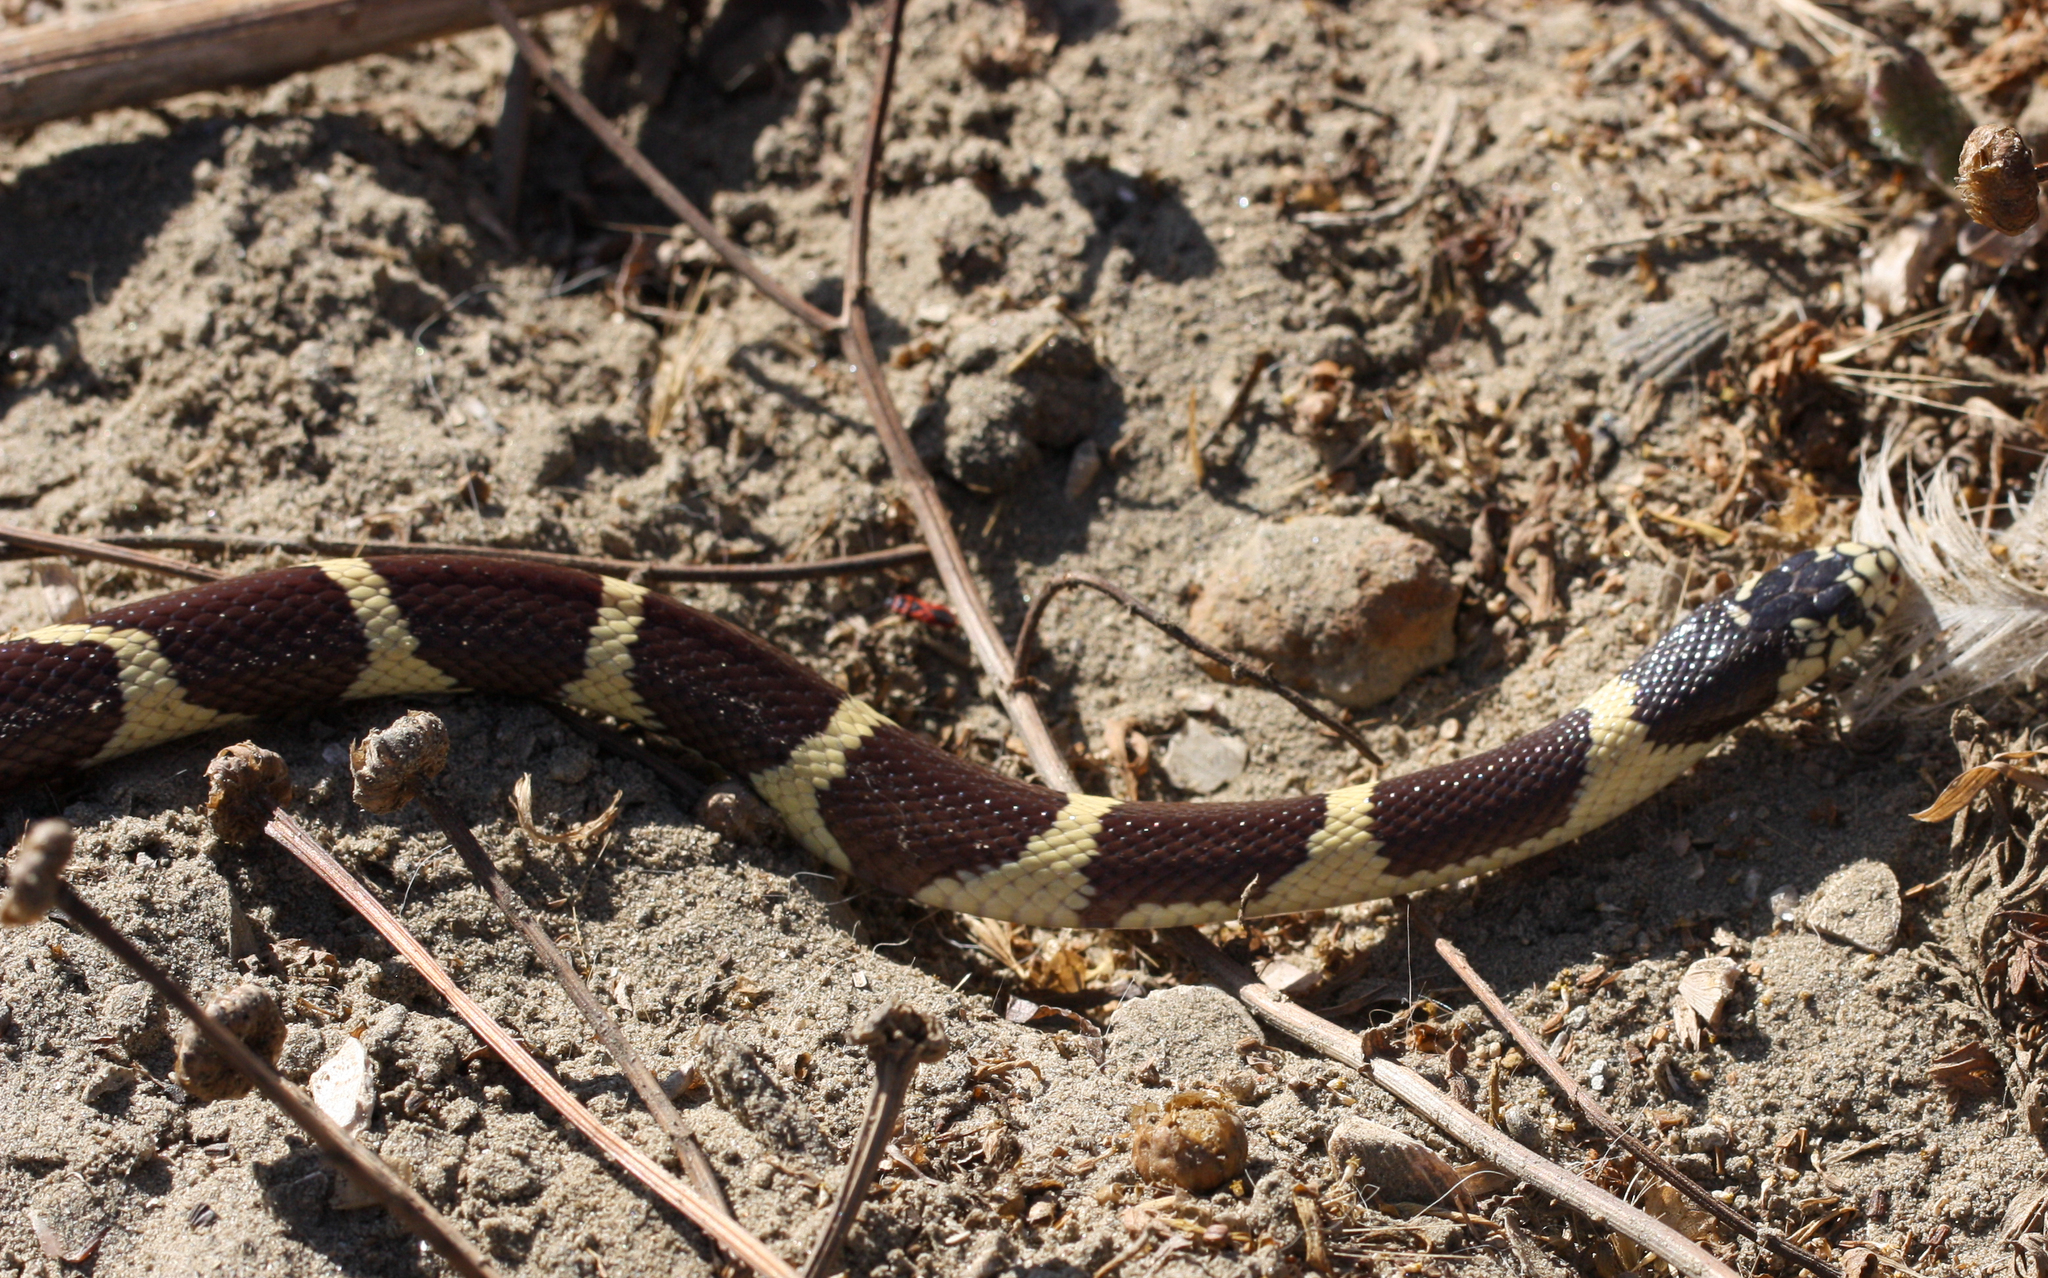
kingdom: Animalia
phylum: Chordata
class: Squamata
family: Colubridae
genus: Lampropeltis
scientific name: Lampropeltis californiae
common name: California kingsnake
